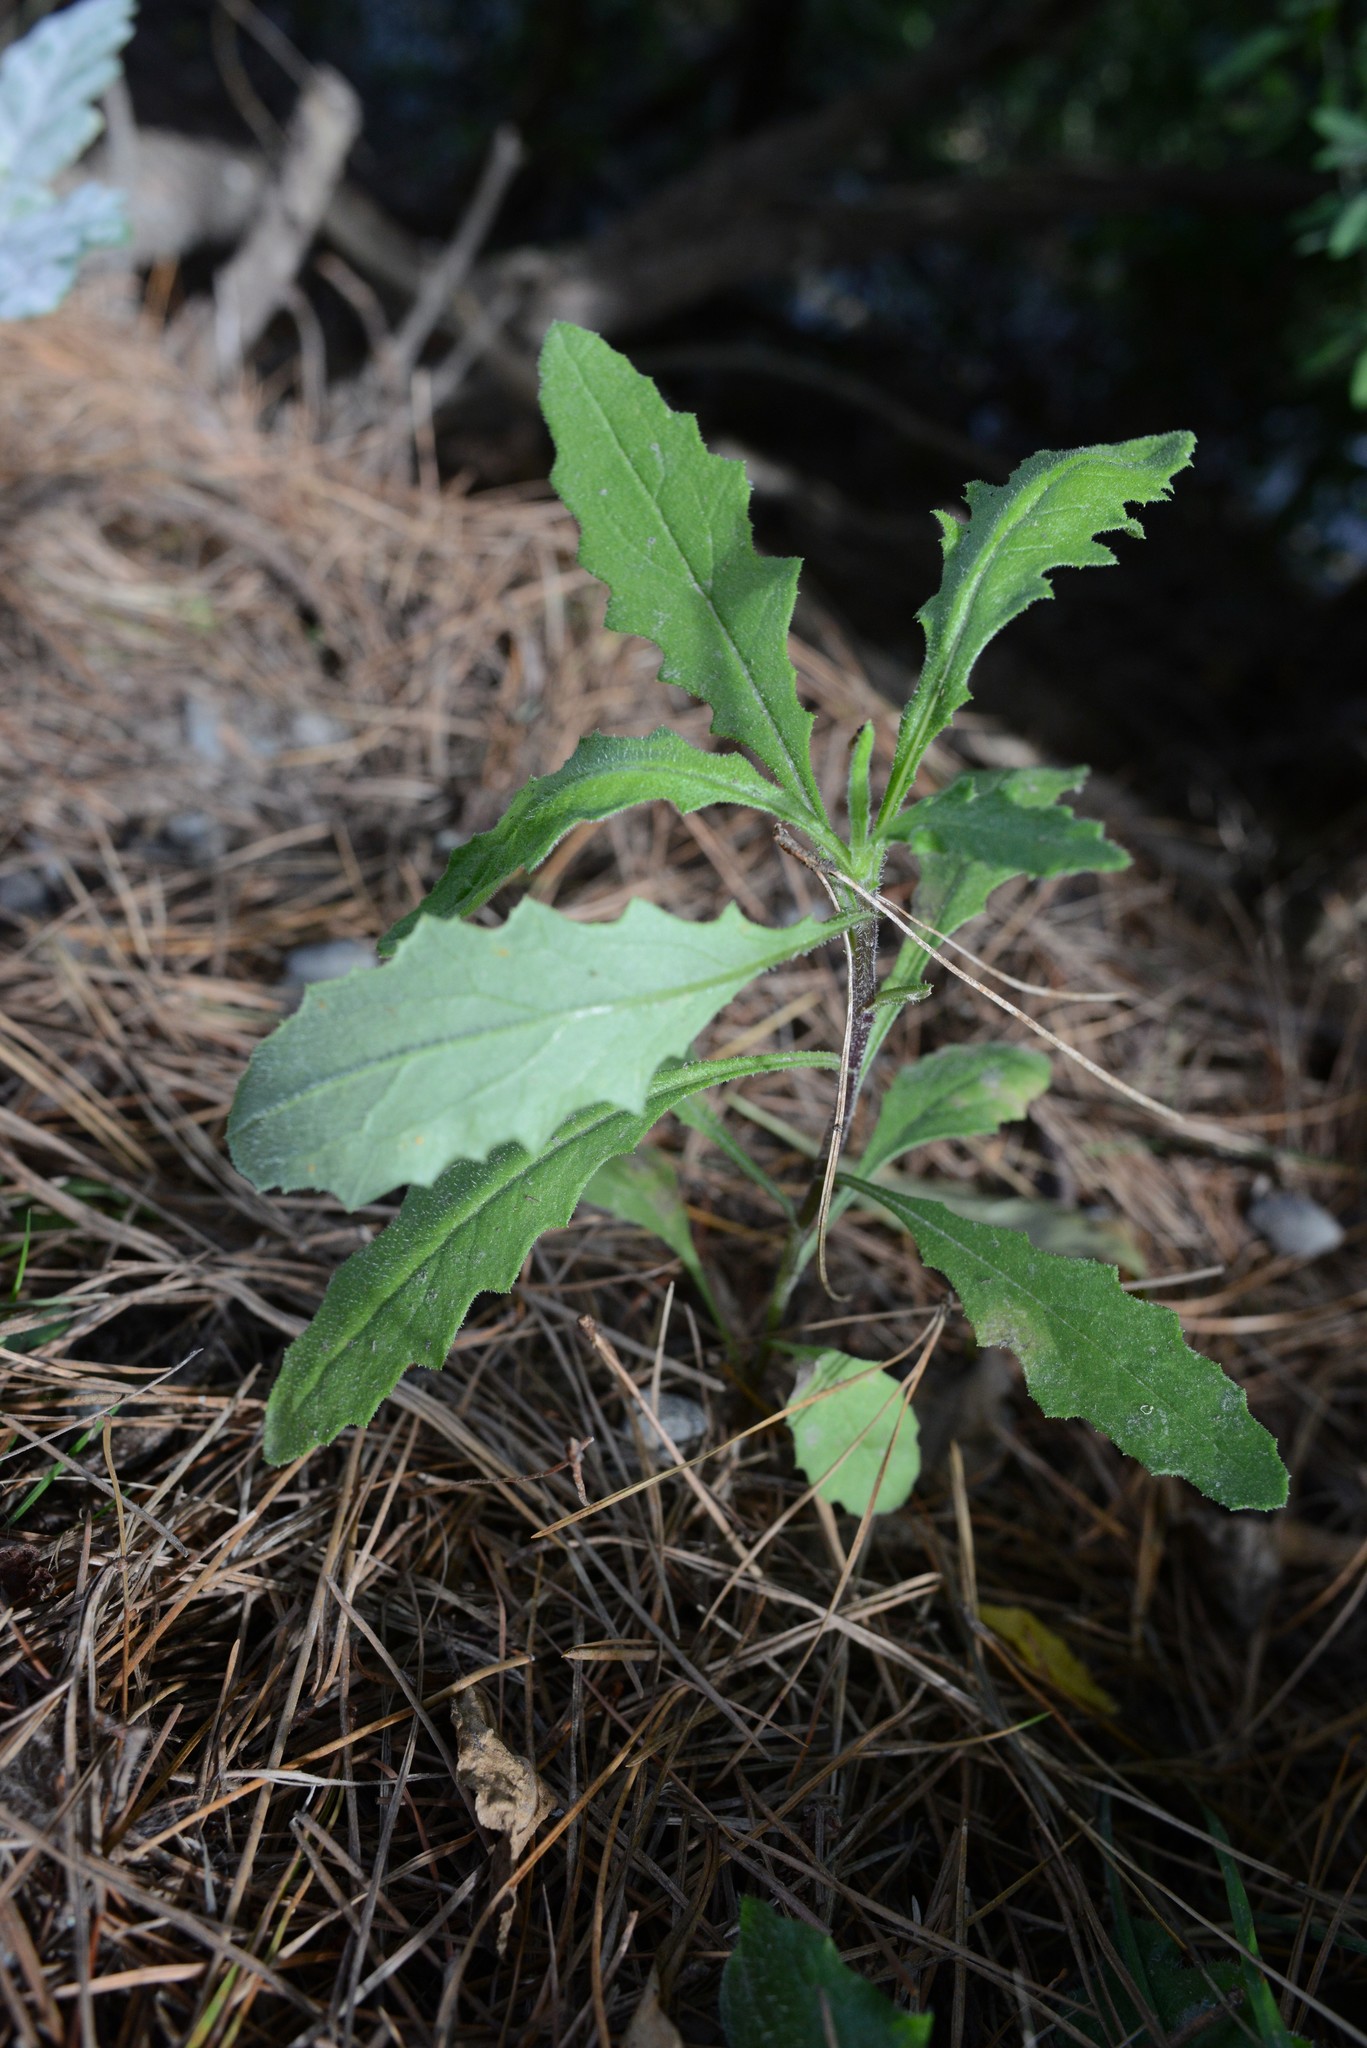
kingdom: Plantae
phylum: Tracheophyta
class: Magnoliopsida
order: Asterales
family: Asteraceae
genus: Senecio
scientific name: Senecio hispidulus
